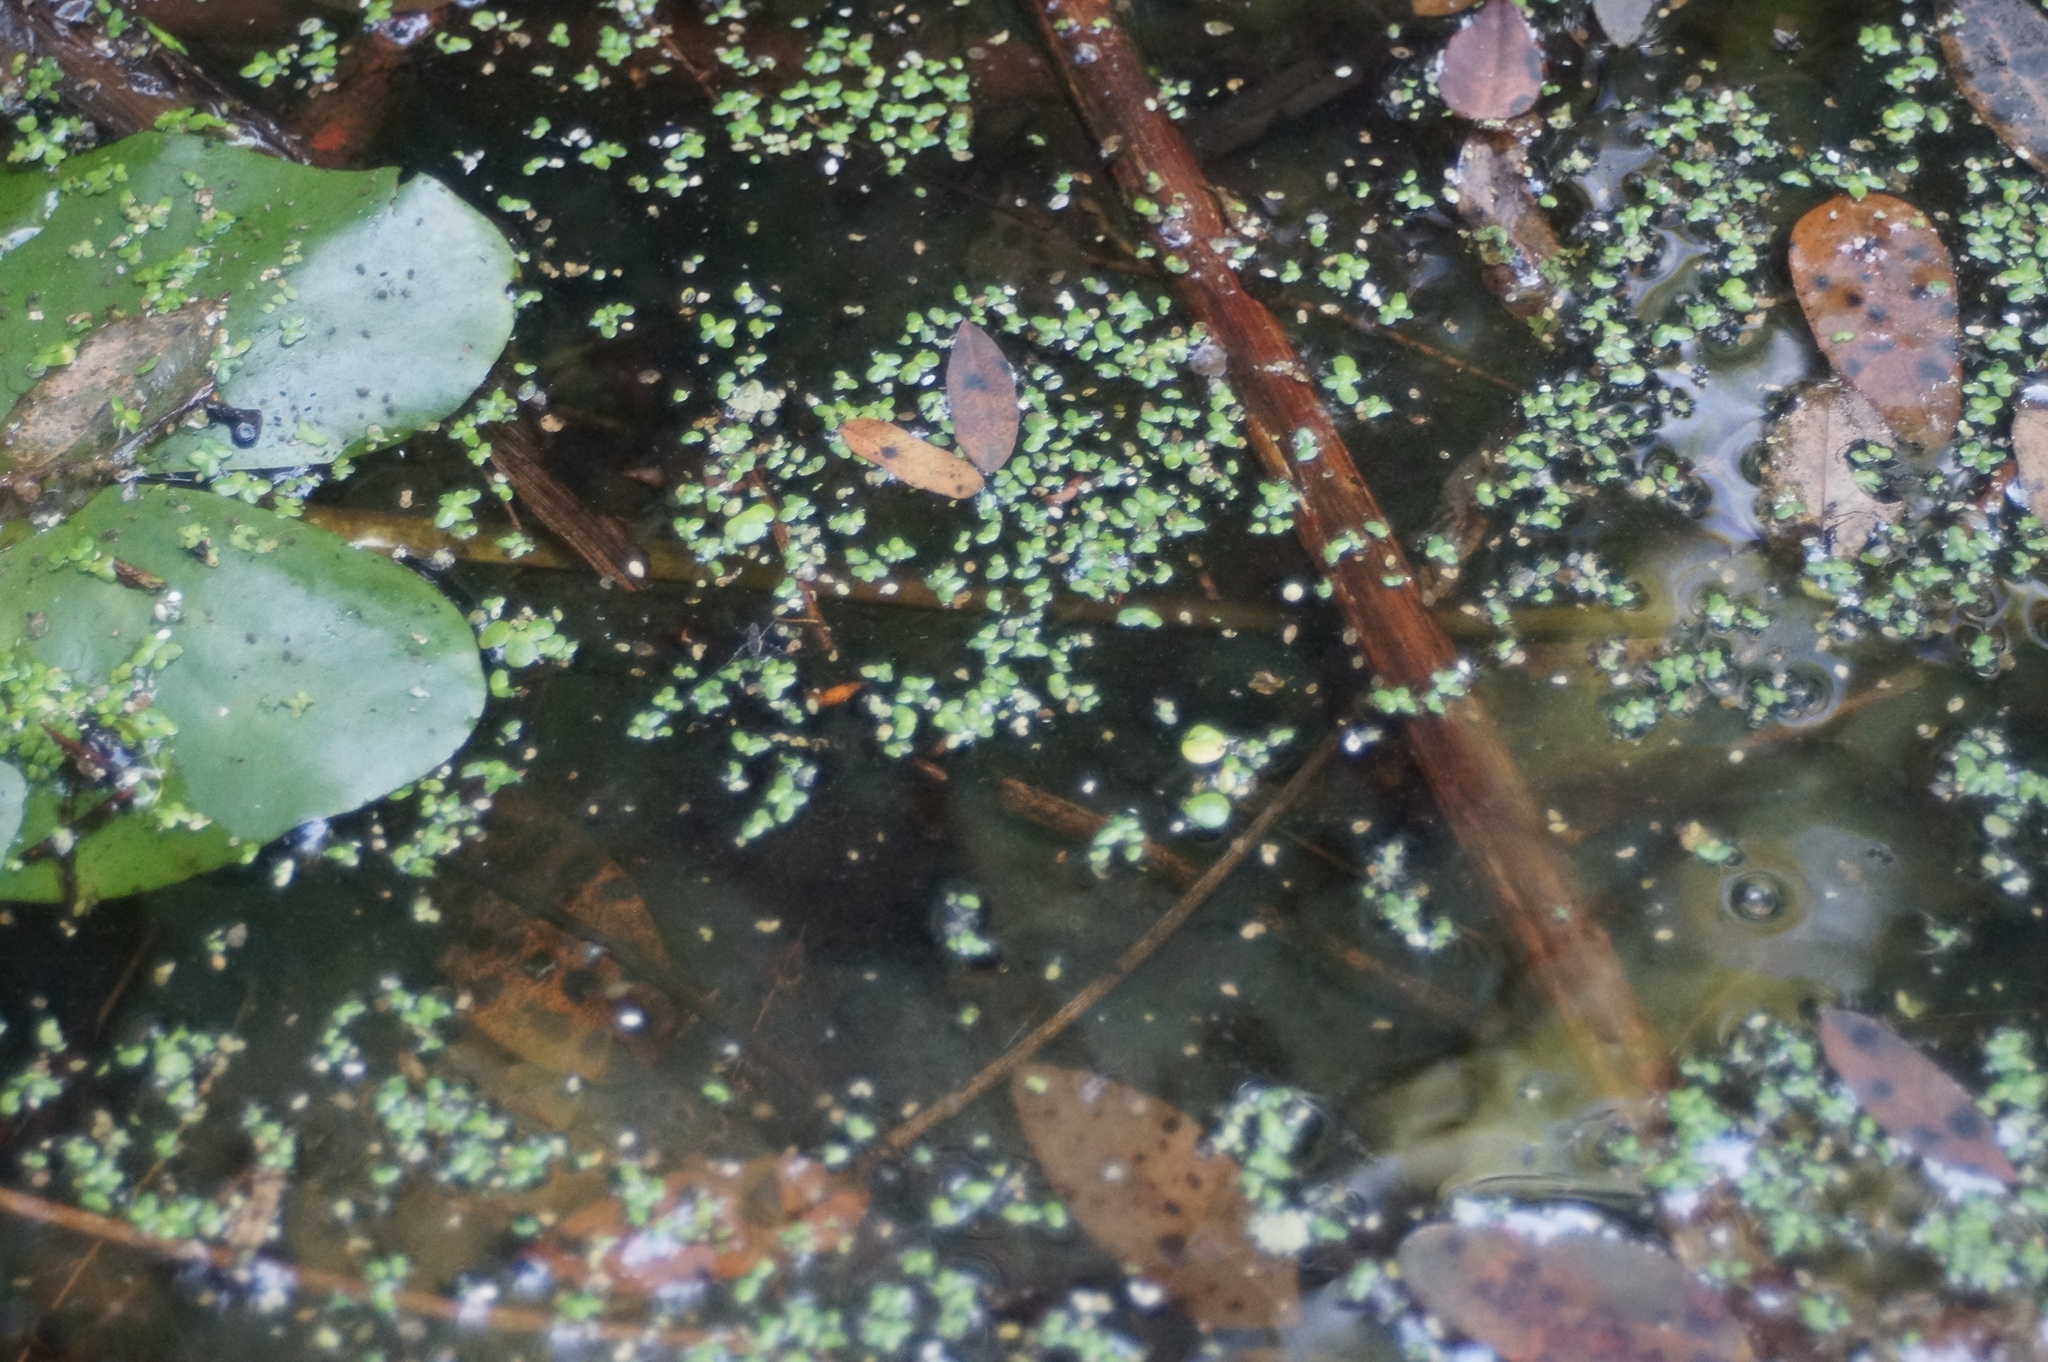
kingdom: Plantae
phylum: Tracheophyta
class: Liliopsida
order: Alismatales
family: Araceae
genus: Lemna
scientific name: Lemna minor
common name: Common duckweed
